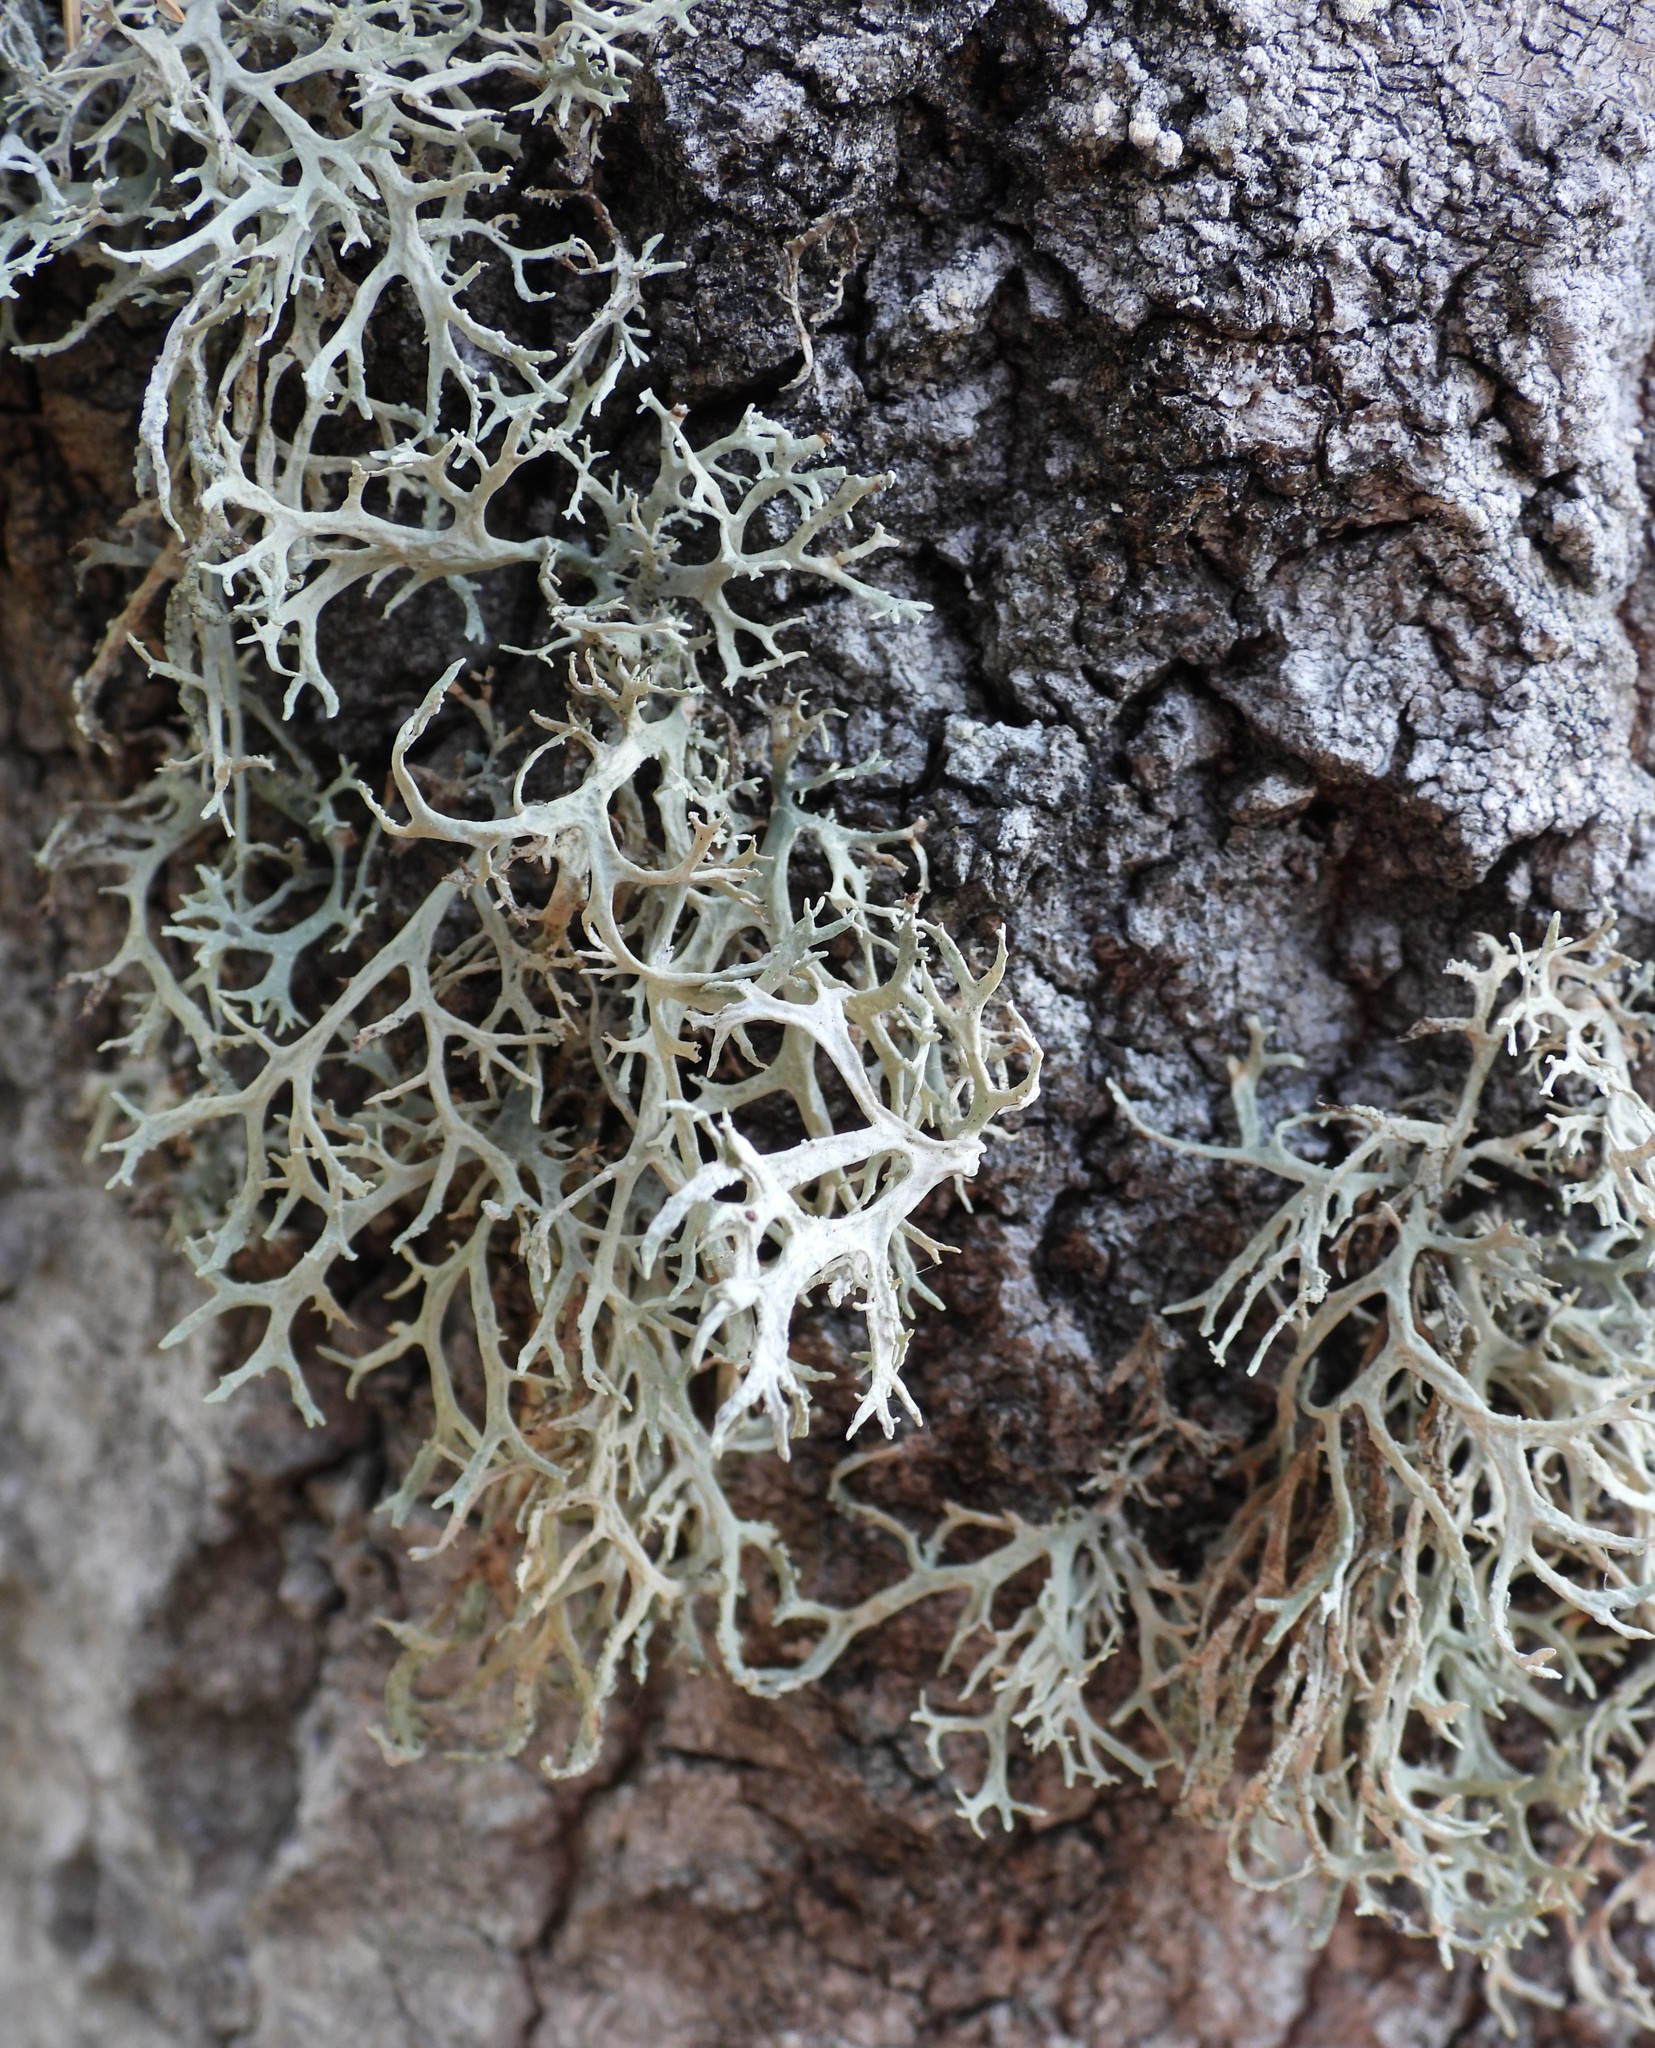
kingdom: Fungi
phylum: Ascomycota
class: Lecanoromycetes
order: Lecanorales
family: Parmeliaceae
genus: Evernia
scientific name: Evernia prunastri
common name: Oak moss
